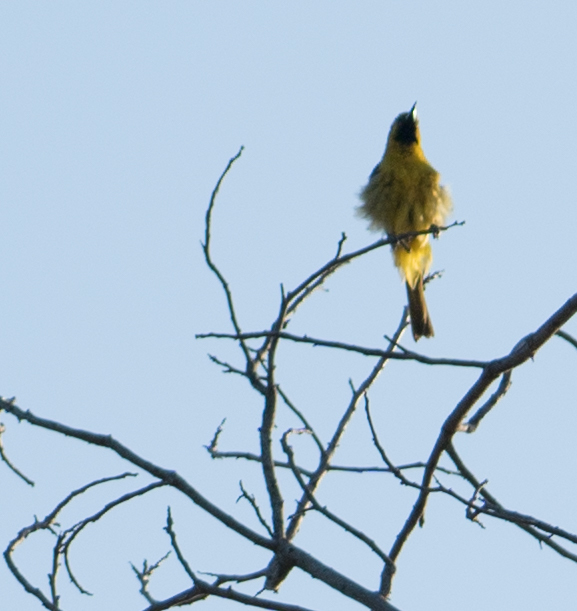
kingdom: Animalia
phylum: Chordata
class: Aves
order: Passeriformes
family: Icteridae
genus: Icterus
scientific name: Icterus cucullatus
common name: Hooded oriole
